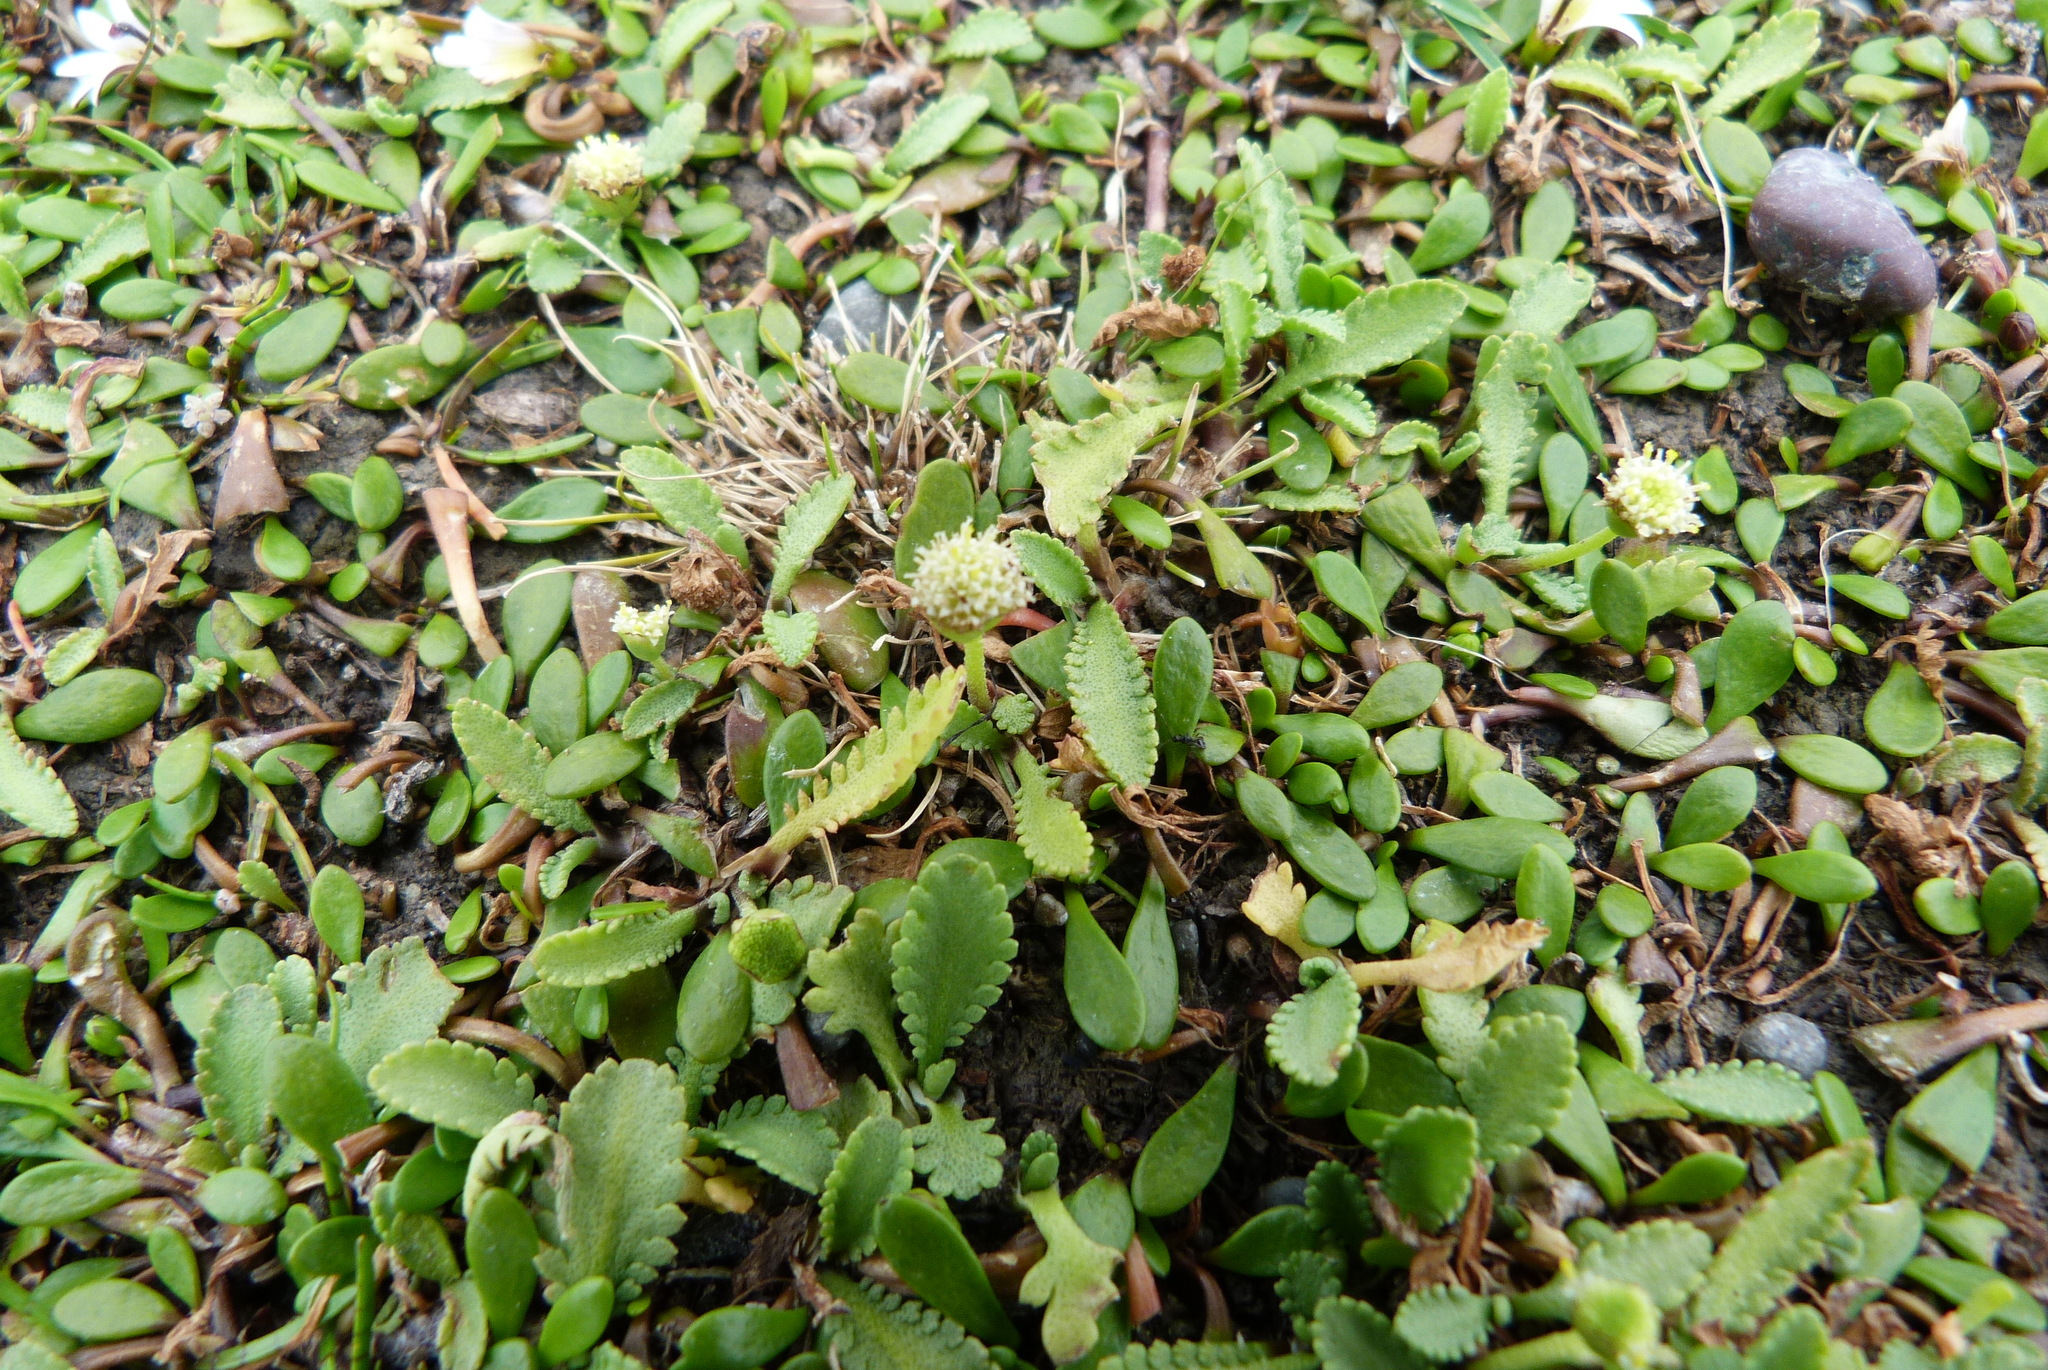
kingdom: Plantae
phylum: Tracheophyta
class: Magnoliopsida
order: Asterales
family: Asteraceae
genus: Leptinella
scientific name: Leptinella dioica
